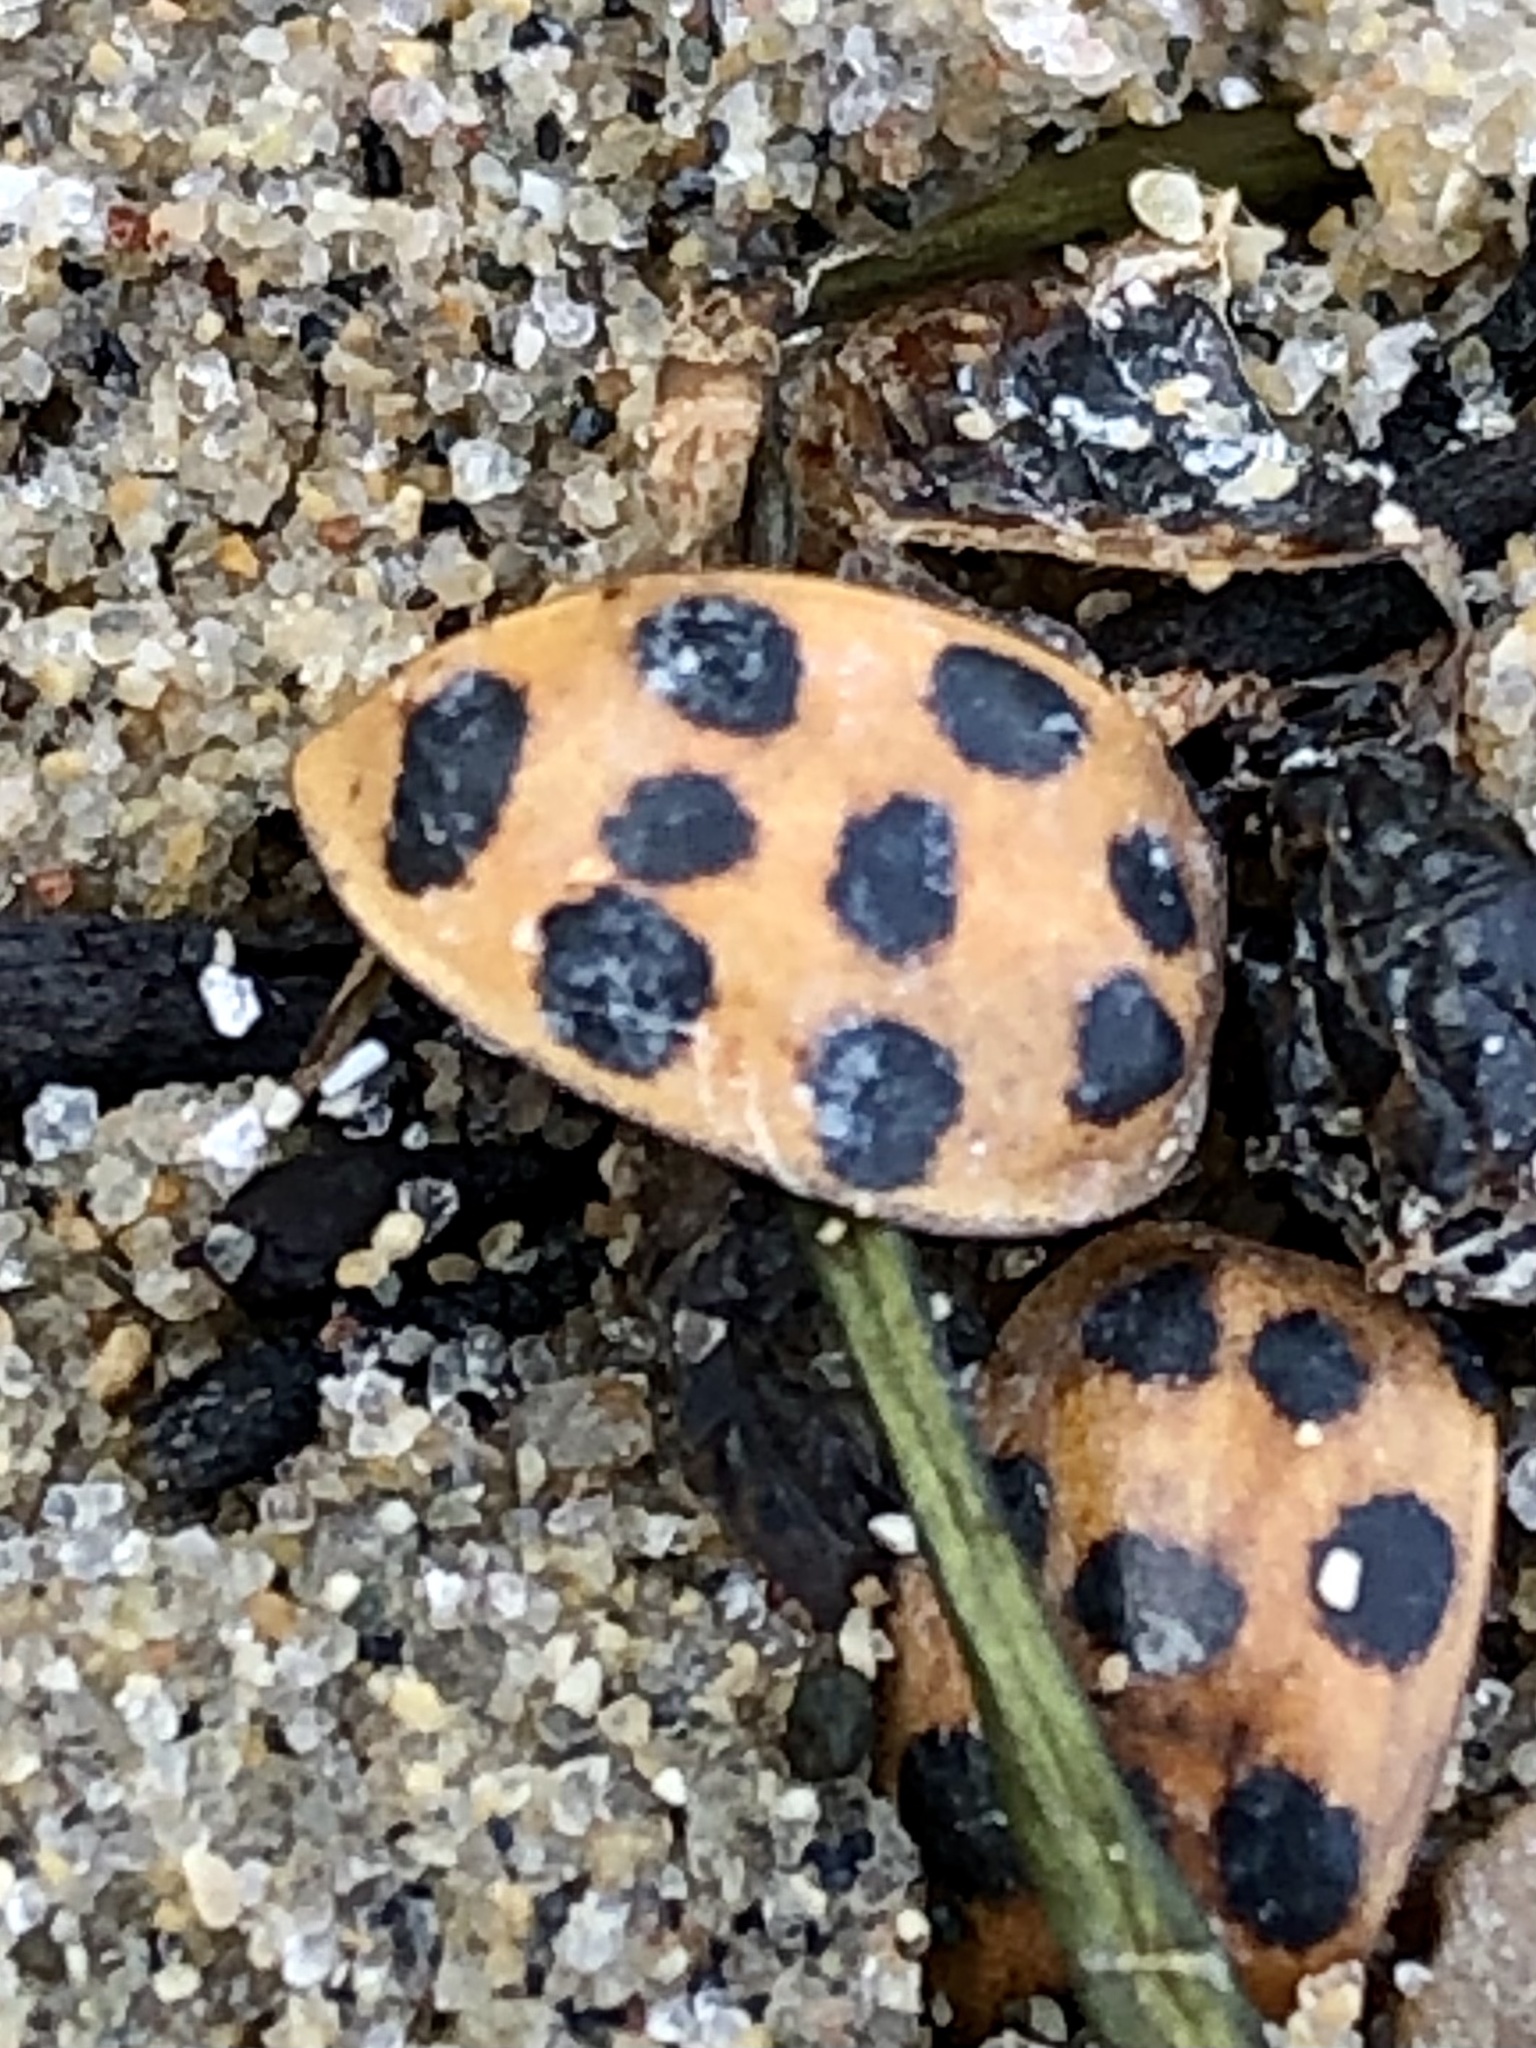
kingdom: Animalia
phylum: Arthropoda
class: Insecta
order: Coleoptera
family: Coccinellidae
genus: Harmonia
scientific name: Harmonia axyridis
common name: Harlequin ladybird
